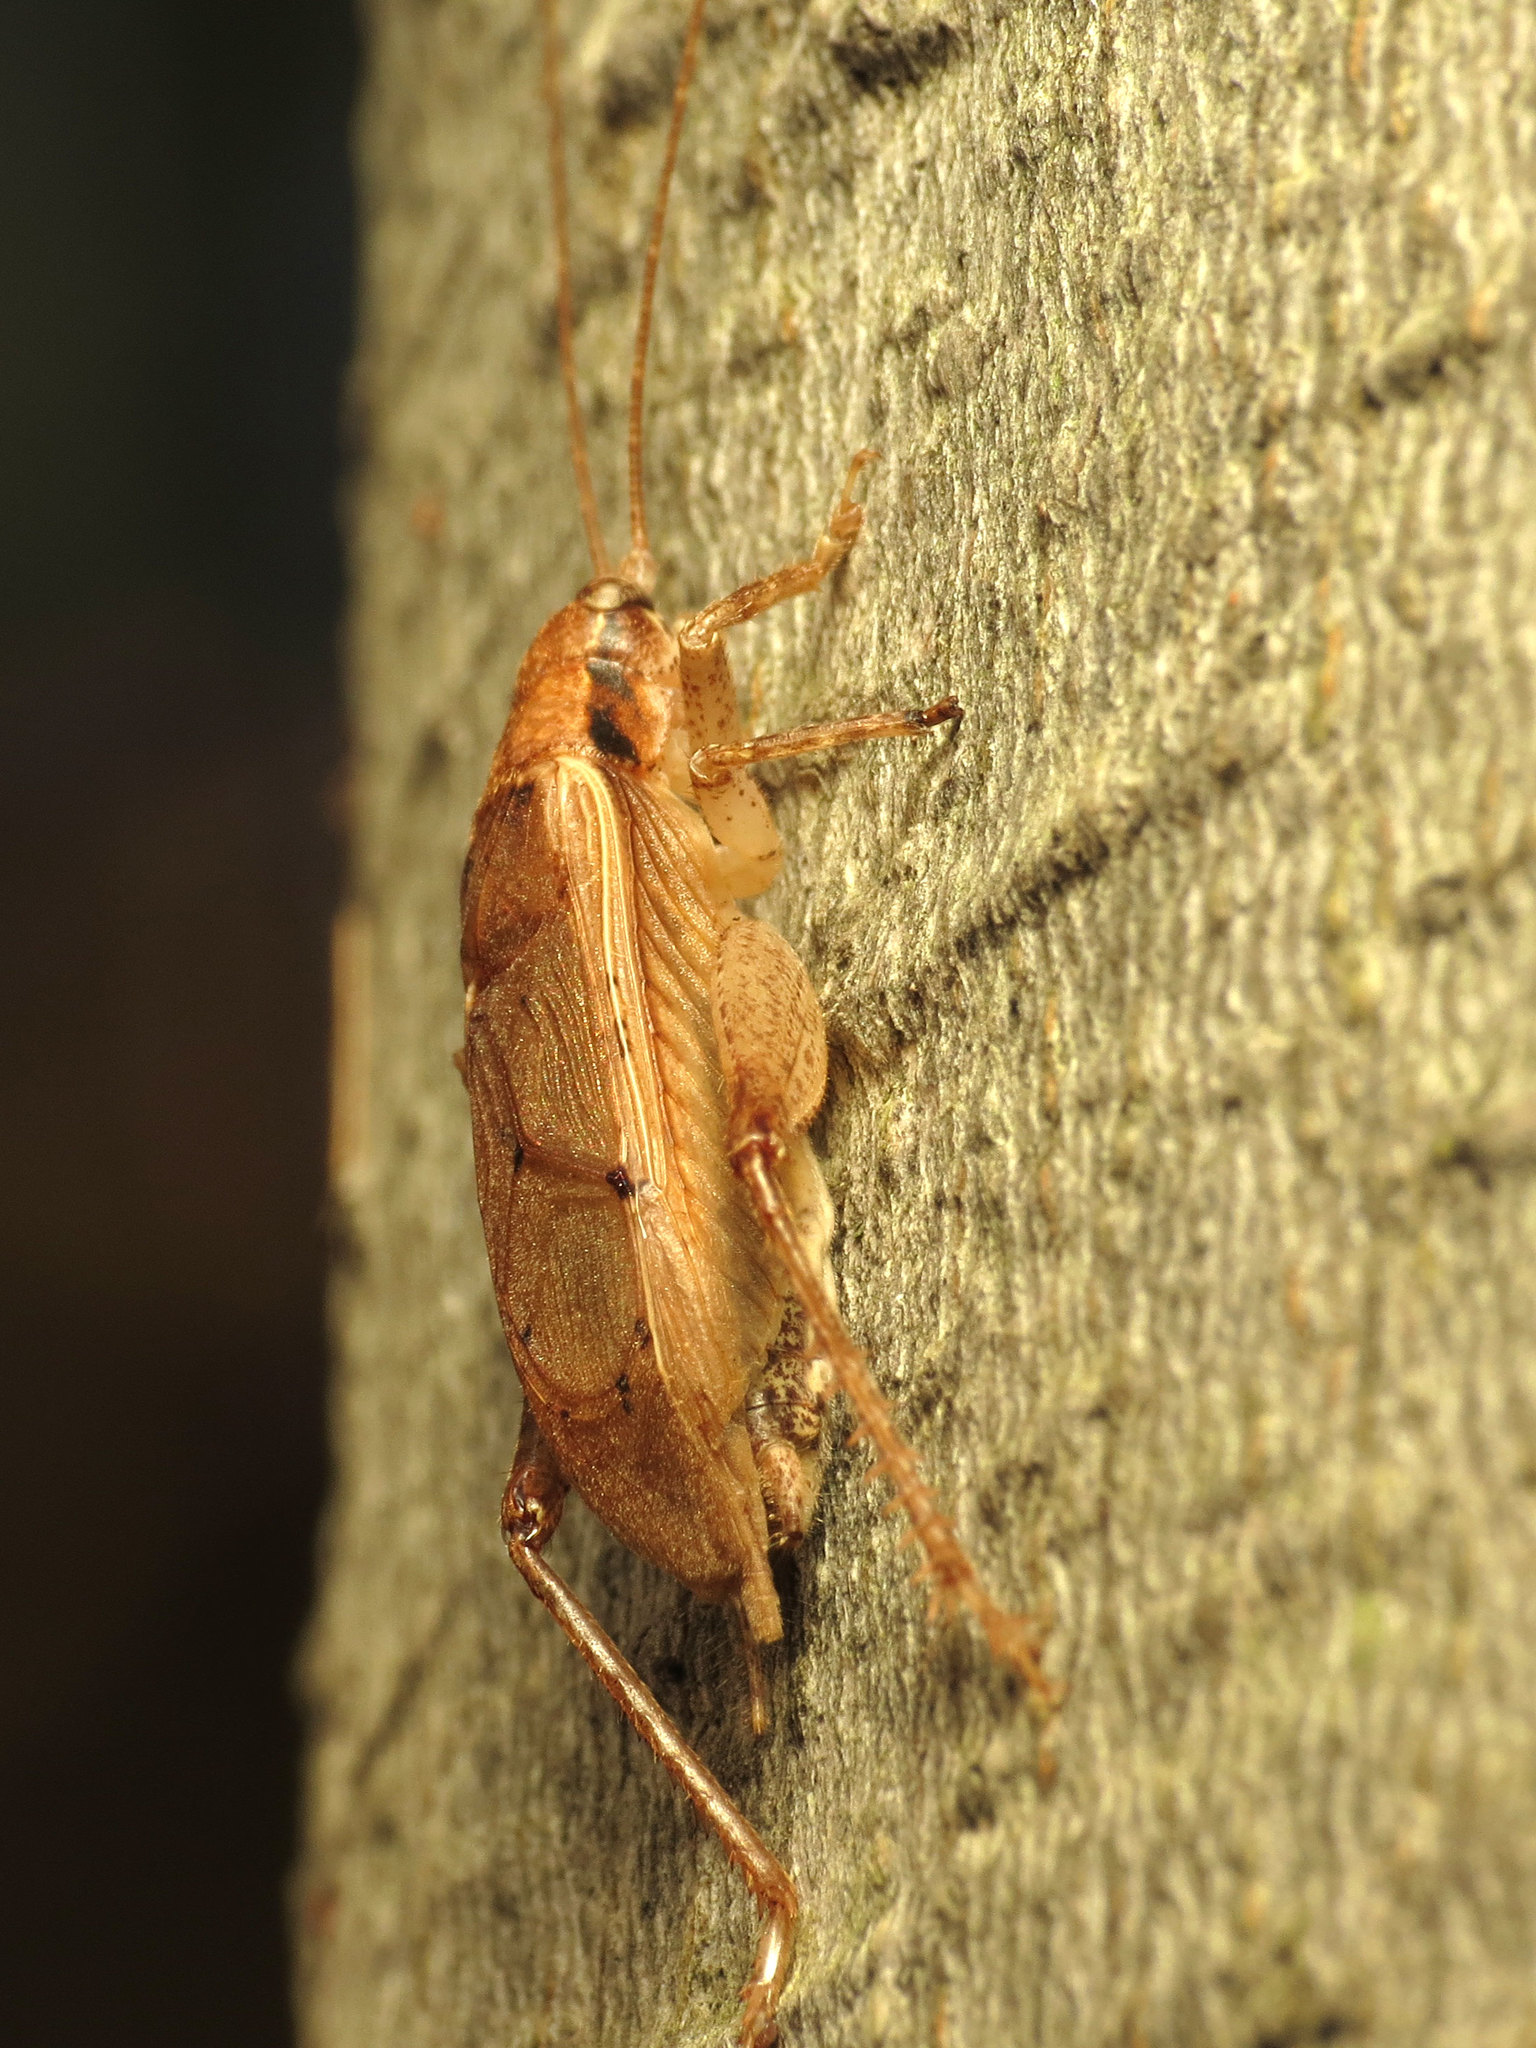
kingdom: Animalia
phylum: Arthropoda
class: Insecta
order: Orthoptera
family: Gryllidae
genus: Hapithus
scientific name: Hapithus saltator
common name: Jumping bush cricket
